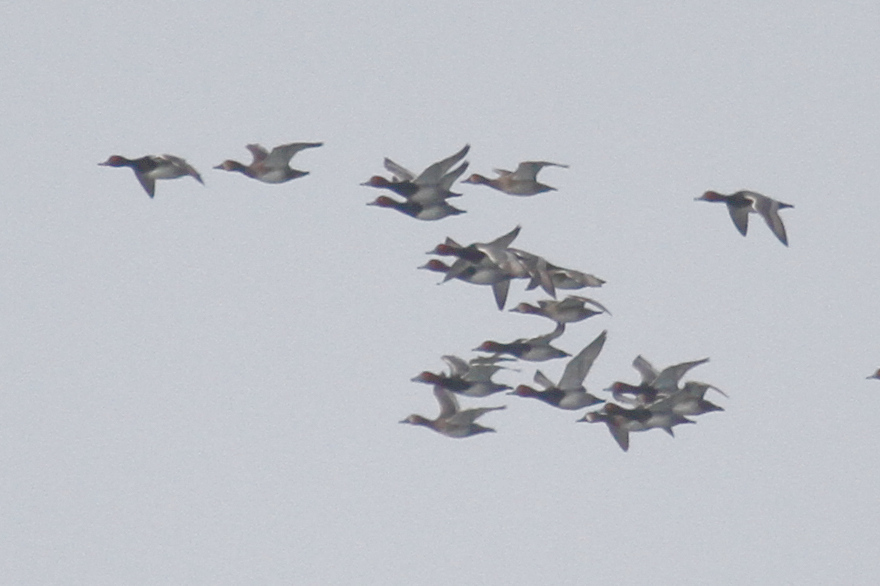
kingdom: Animalia
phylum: Chordata
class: Aves
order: Anseriformes
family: Anatidae
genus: Aythya
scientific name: Aythya americana
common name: Redhead
